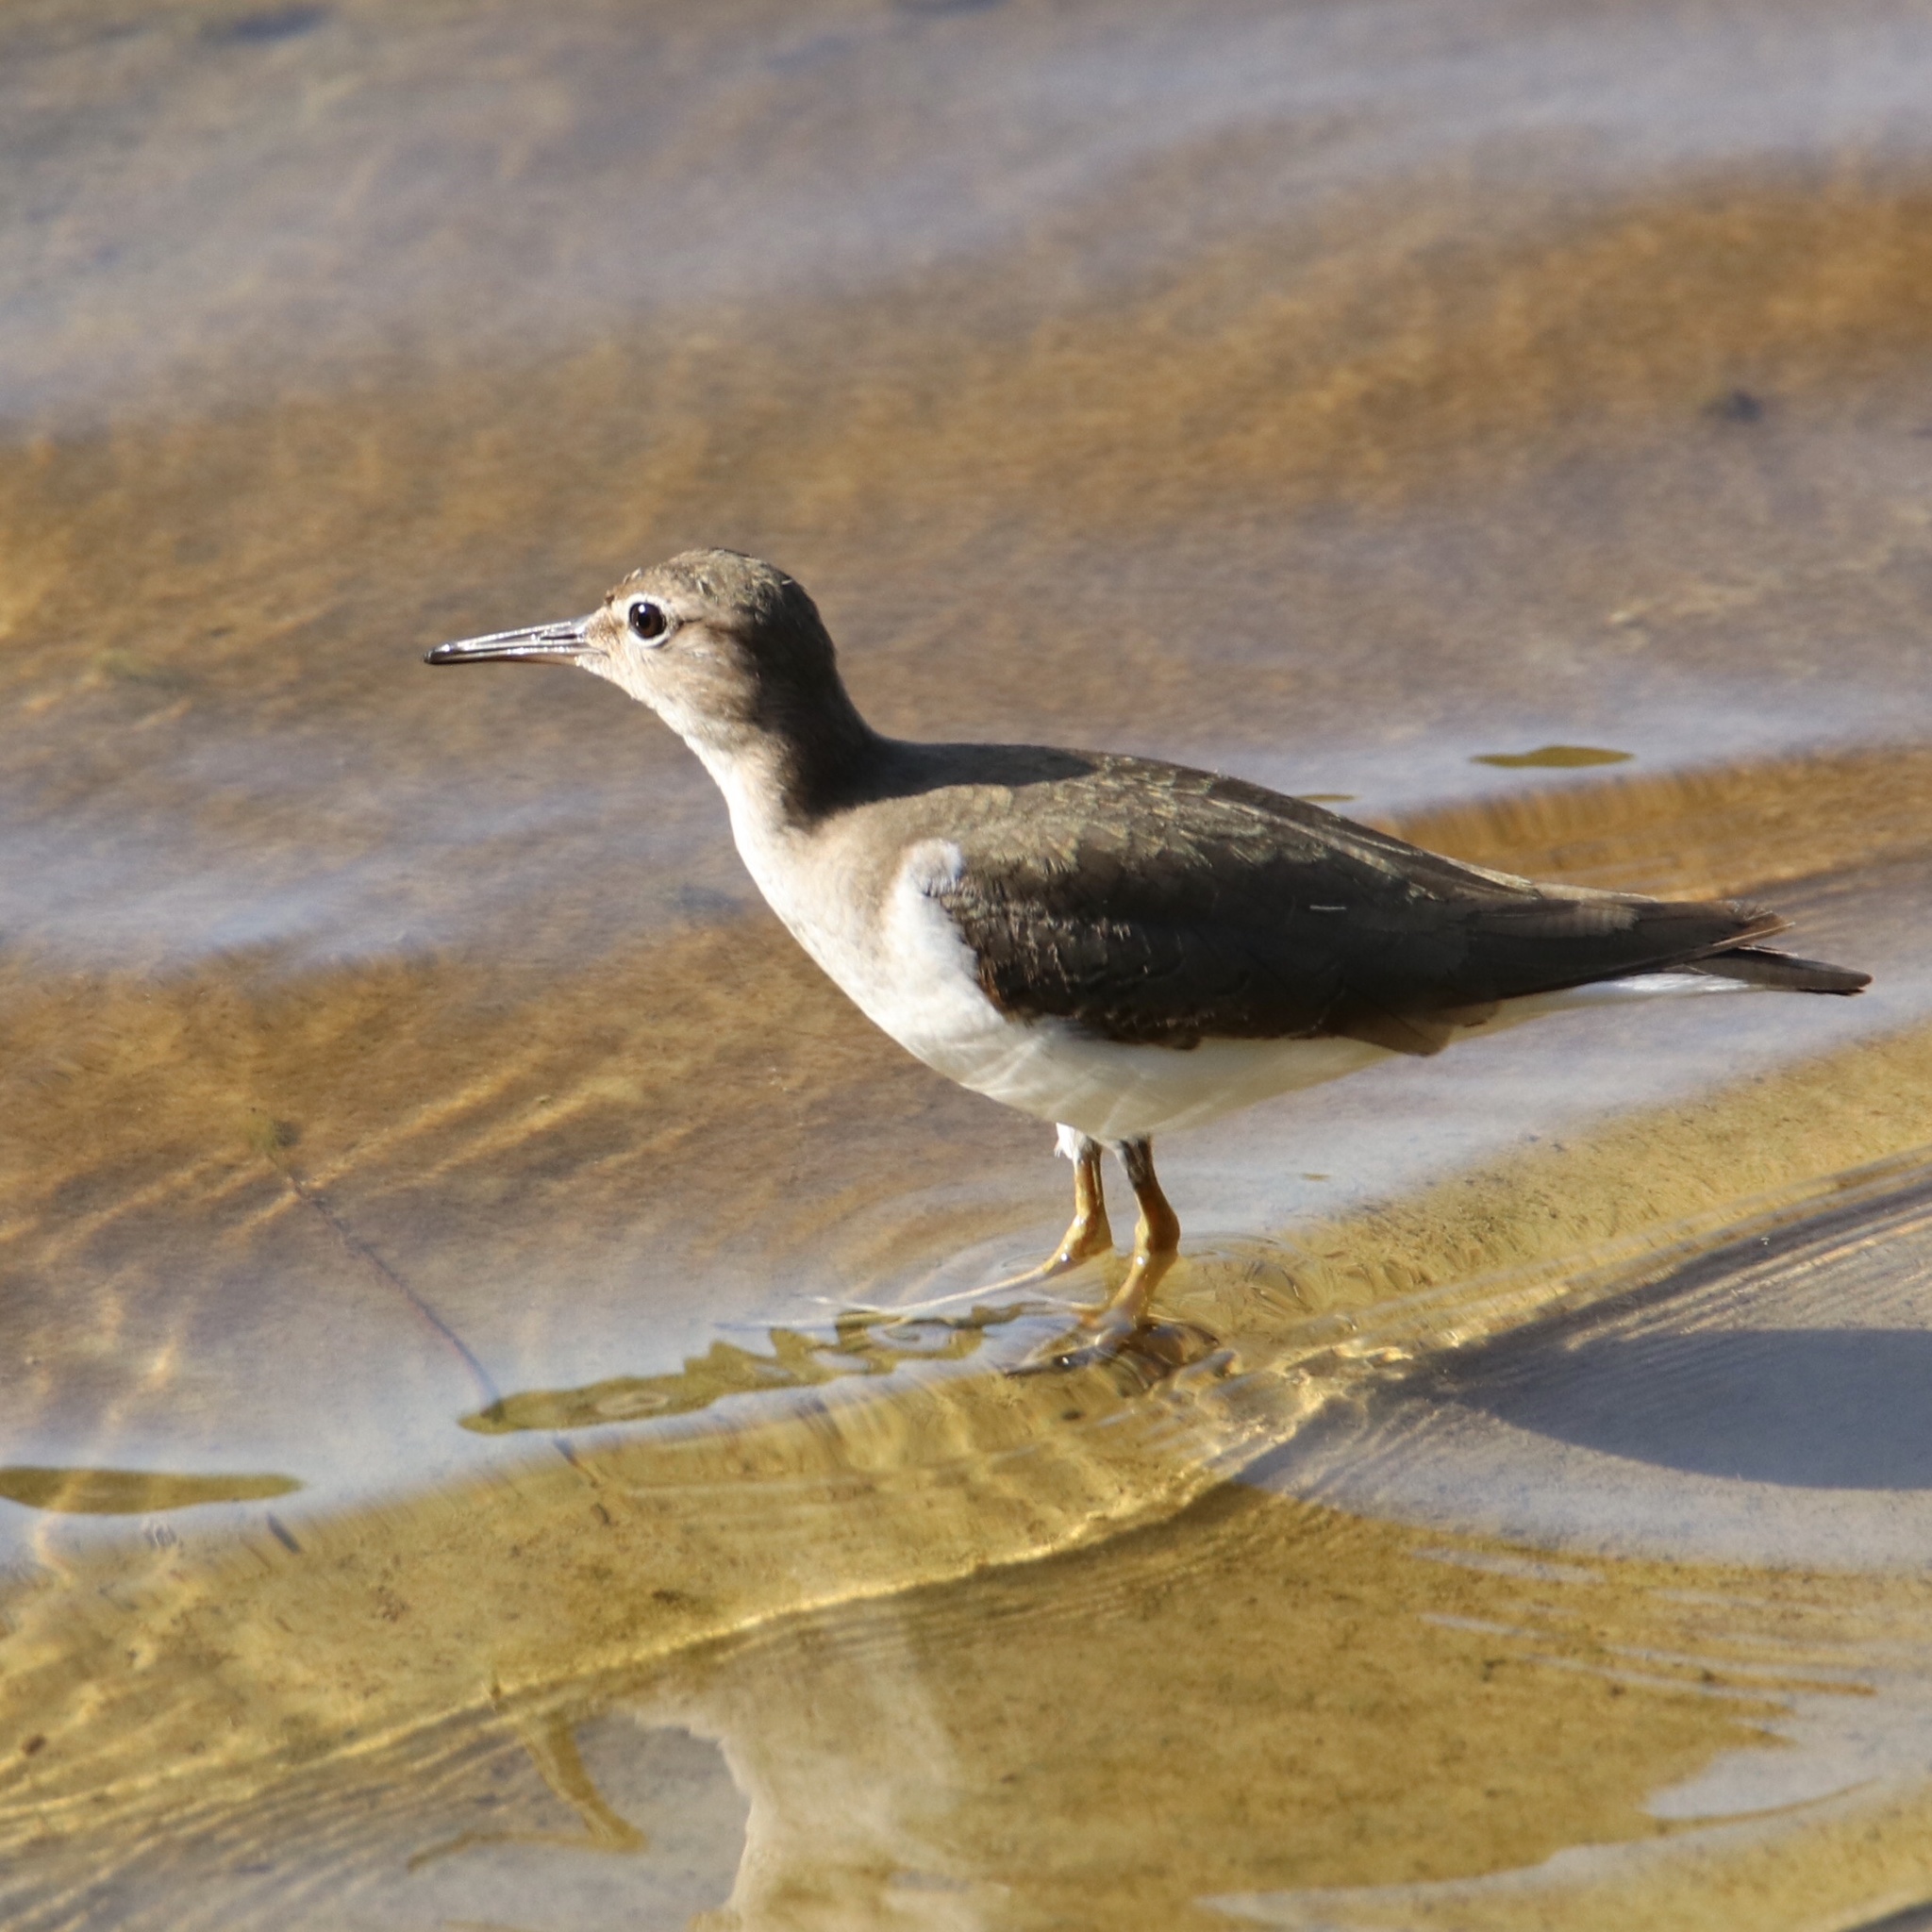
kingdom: Animalia
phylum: Chordata
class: Aves
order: Charadriiformes
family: Scolopacidae
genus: Actitis
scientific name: Actitis macularius
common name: Spotted sandpiper
